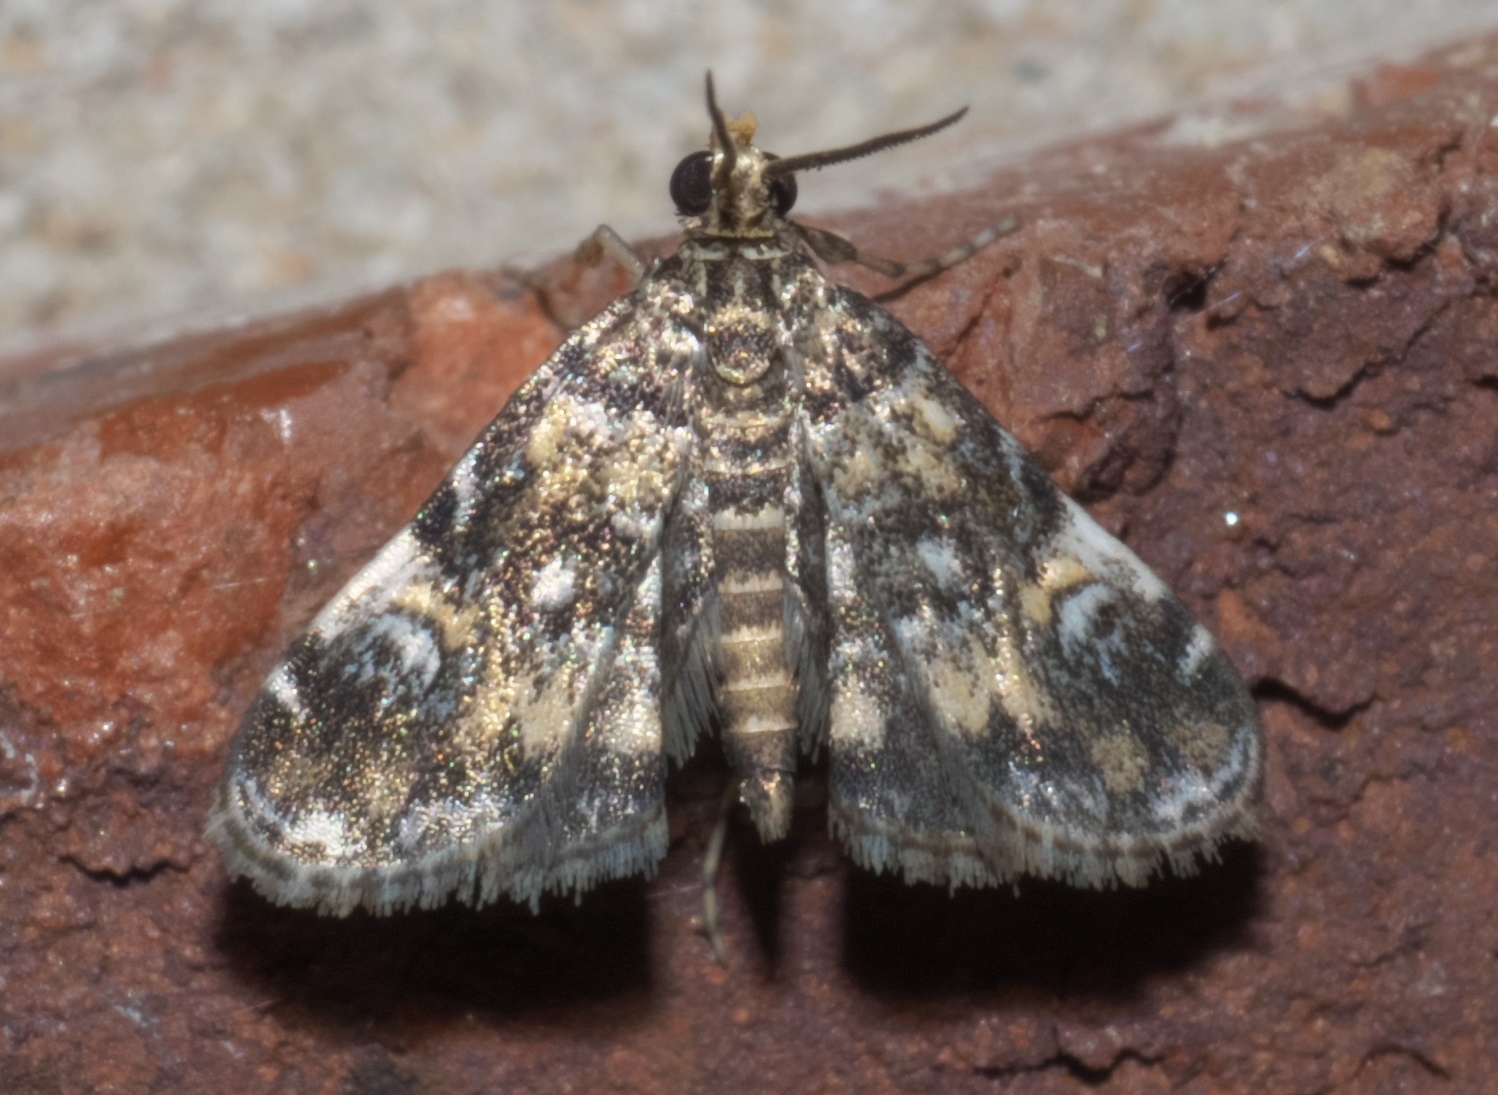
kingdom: Animalia
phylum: Arthropoda
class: Insecta
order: Lepidoptera
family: Crambidae
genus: Elophila
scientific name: Elophila obliteralis
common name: Waterlily leafcutter moth
